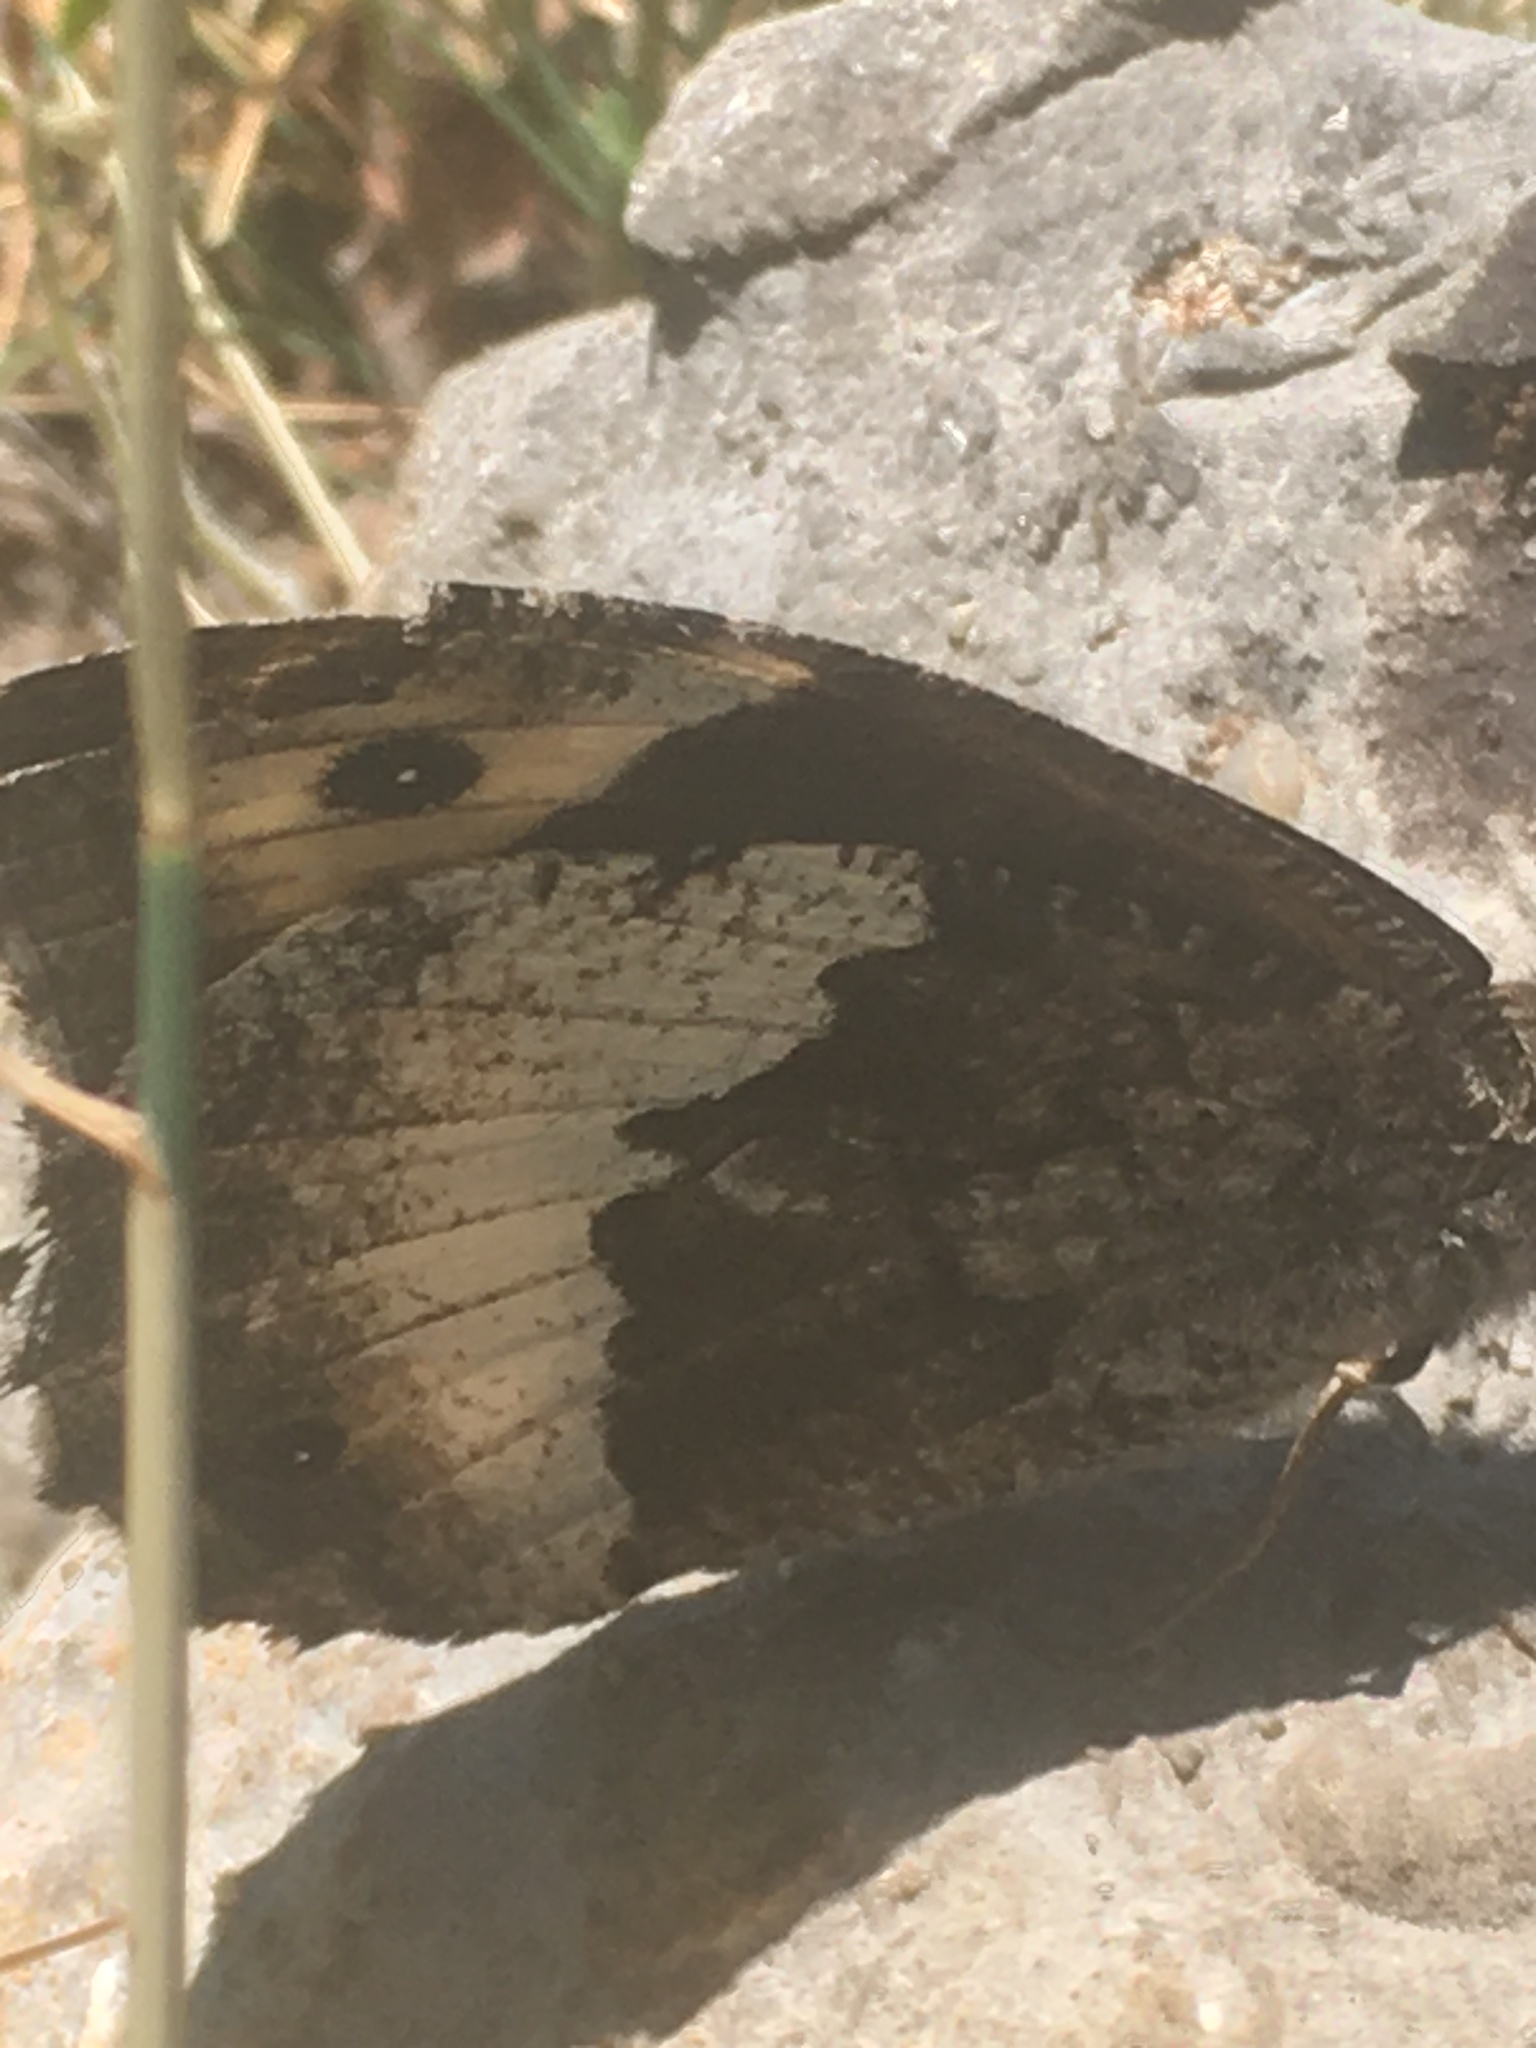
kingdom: Animalia
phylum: Arthropoda
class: Insecta
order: Lepidoptera
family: Nymphalidae
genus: Hipparchia
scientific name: Hipparchia fagi
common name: Woodland grayling
